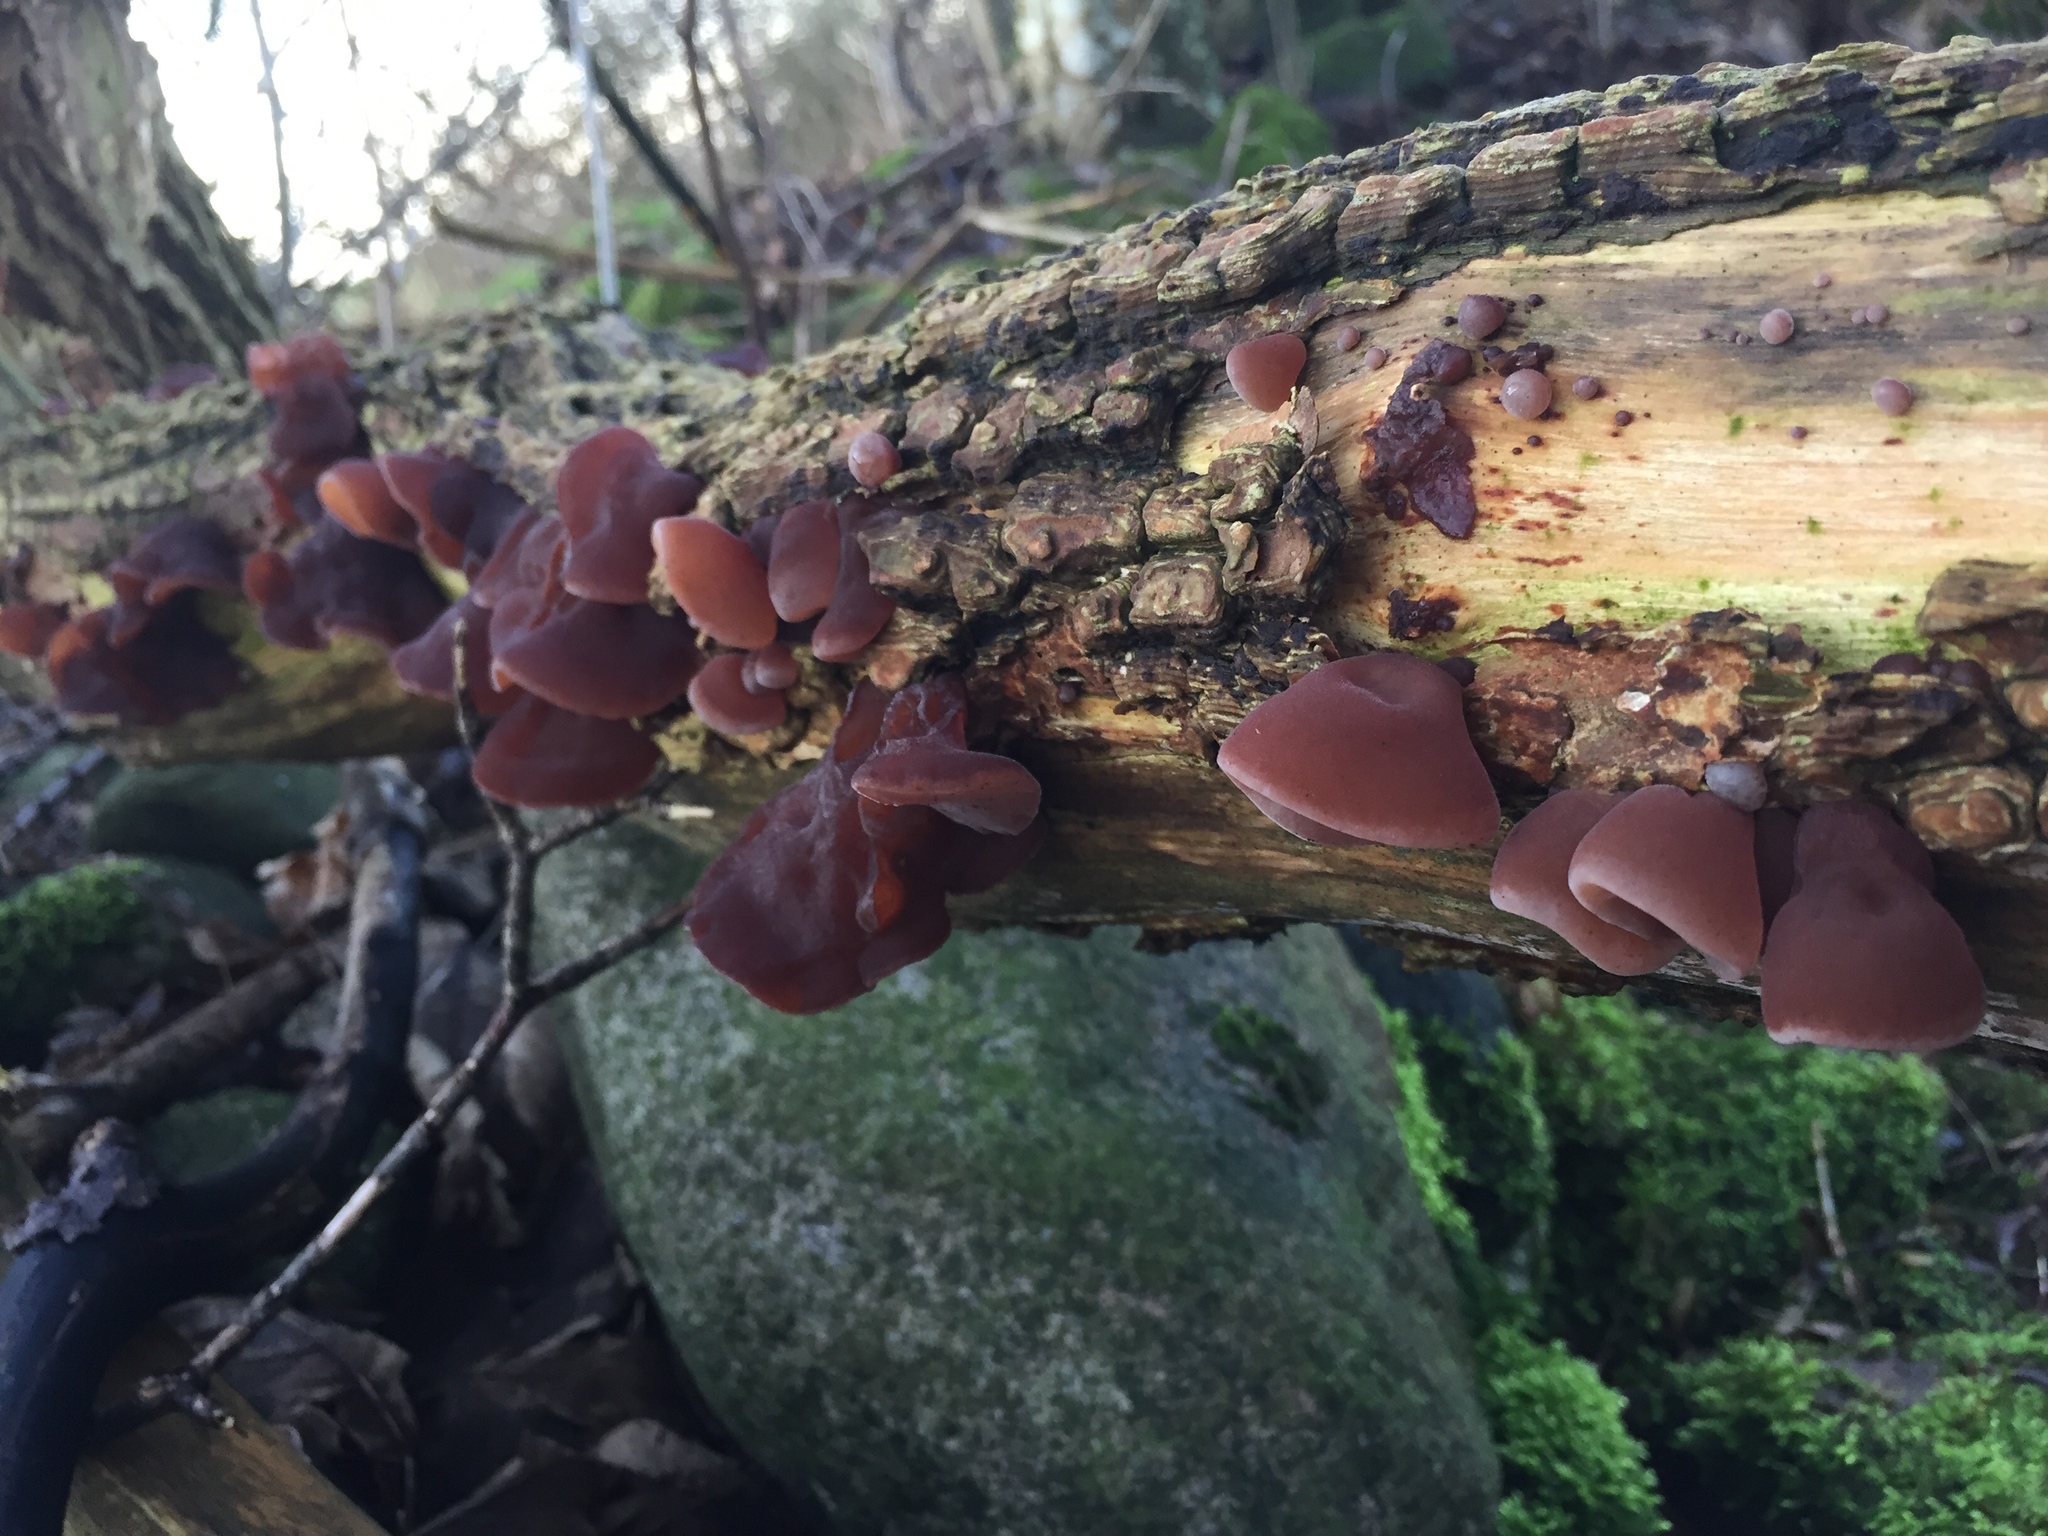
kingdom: Fungi
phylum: Basidiomycota
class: Agaricomycetes
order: Auriculariales
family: Auriculariaceae
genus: Auricularia
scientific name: Auricularia auricula-judae
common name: Jelly ear
